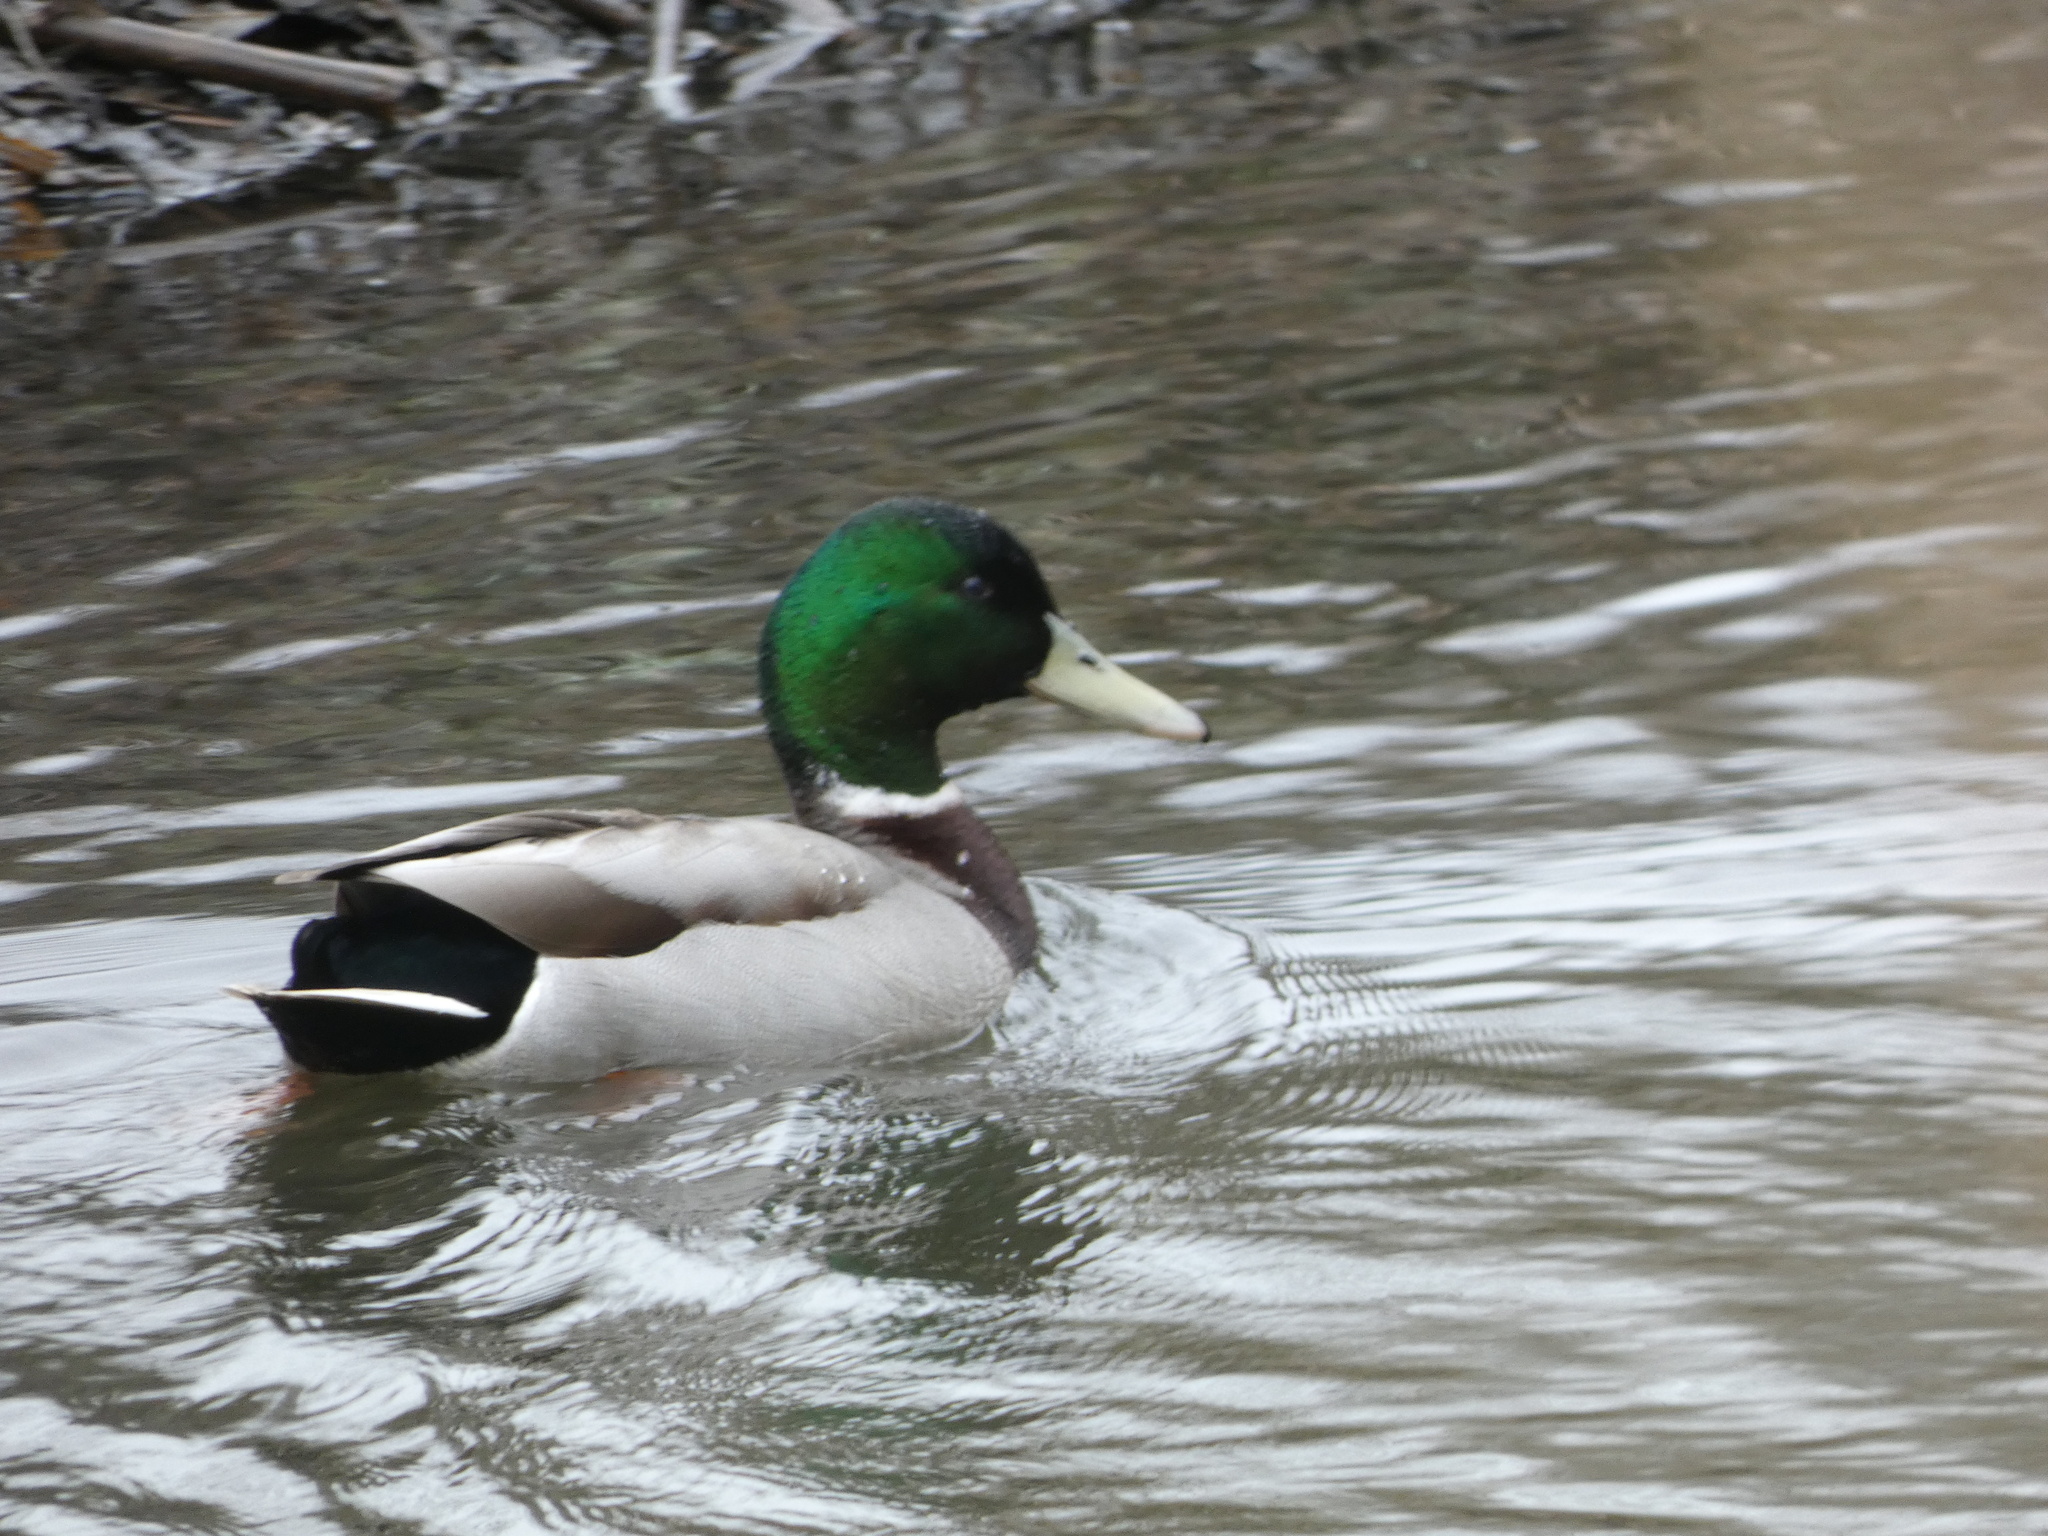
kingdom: Animalia
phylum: Chordata
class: Aves
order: Anseriformes
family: Anatidae
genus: Anas
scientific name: Anas platyrhynchos
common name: Mallard
